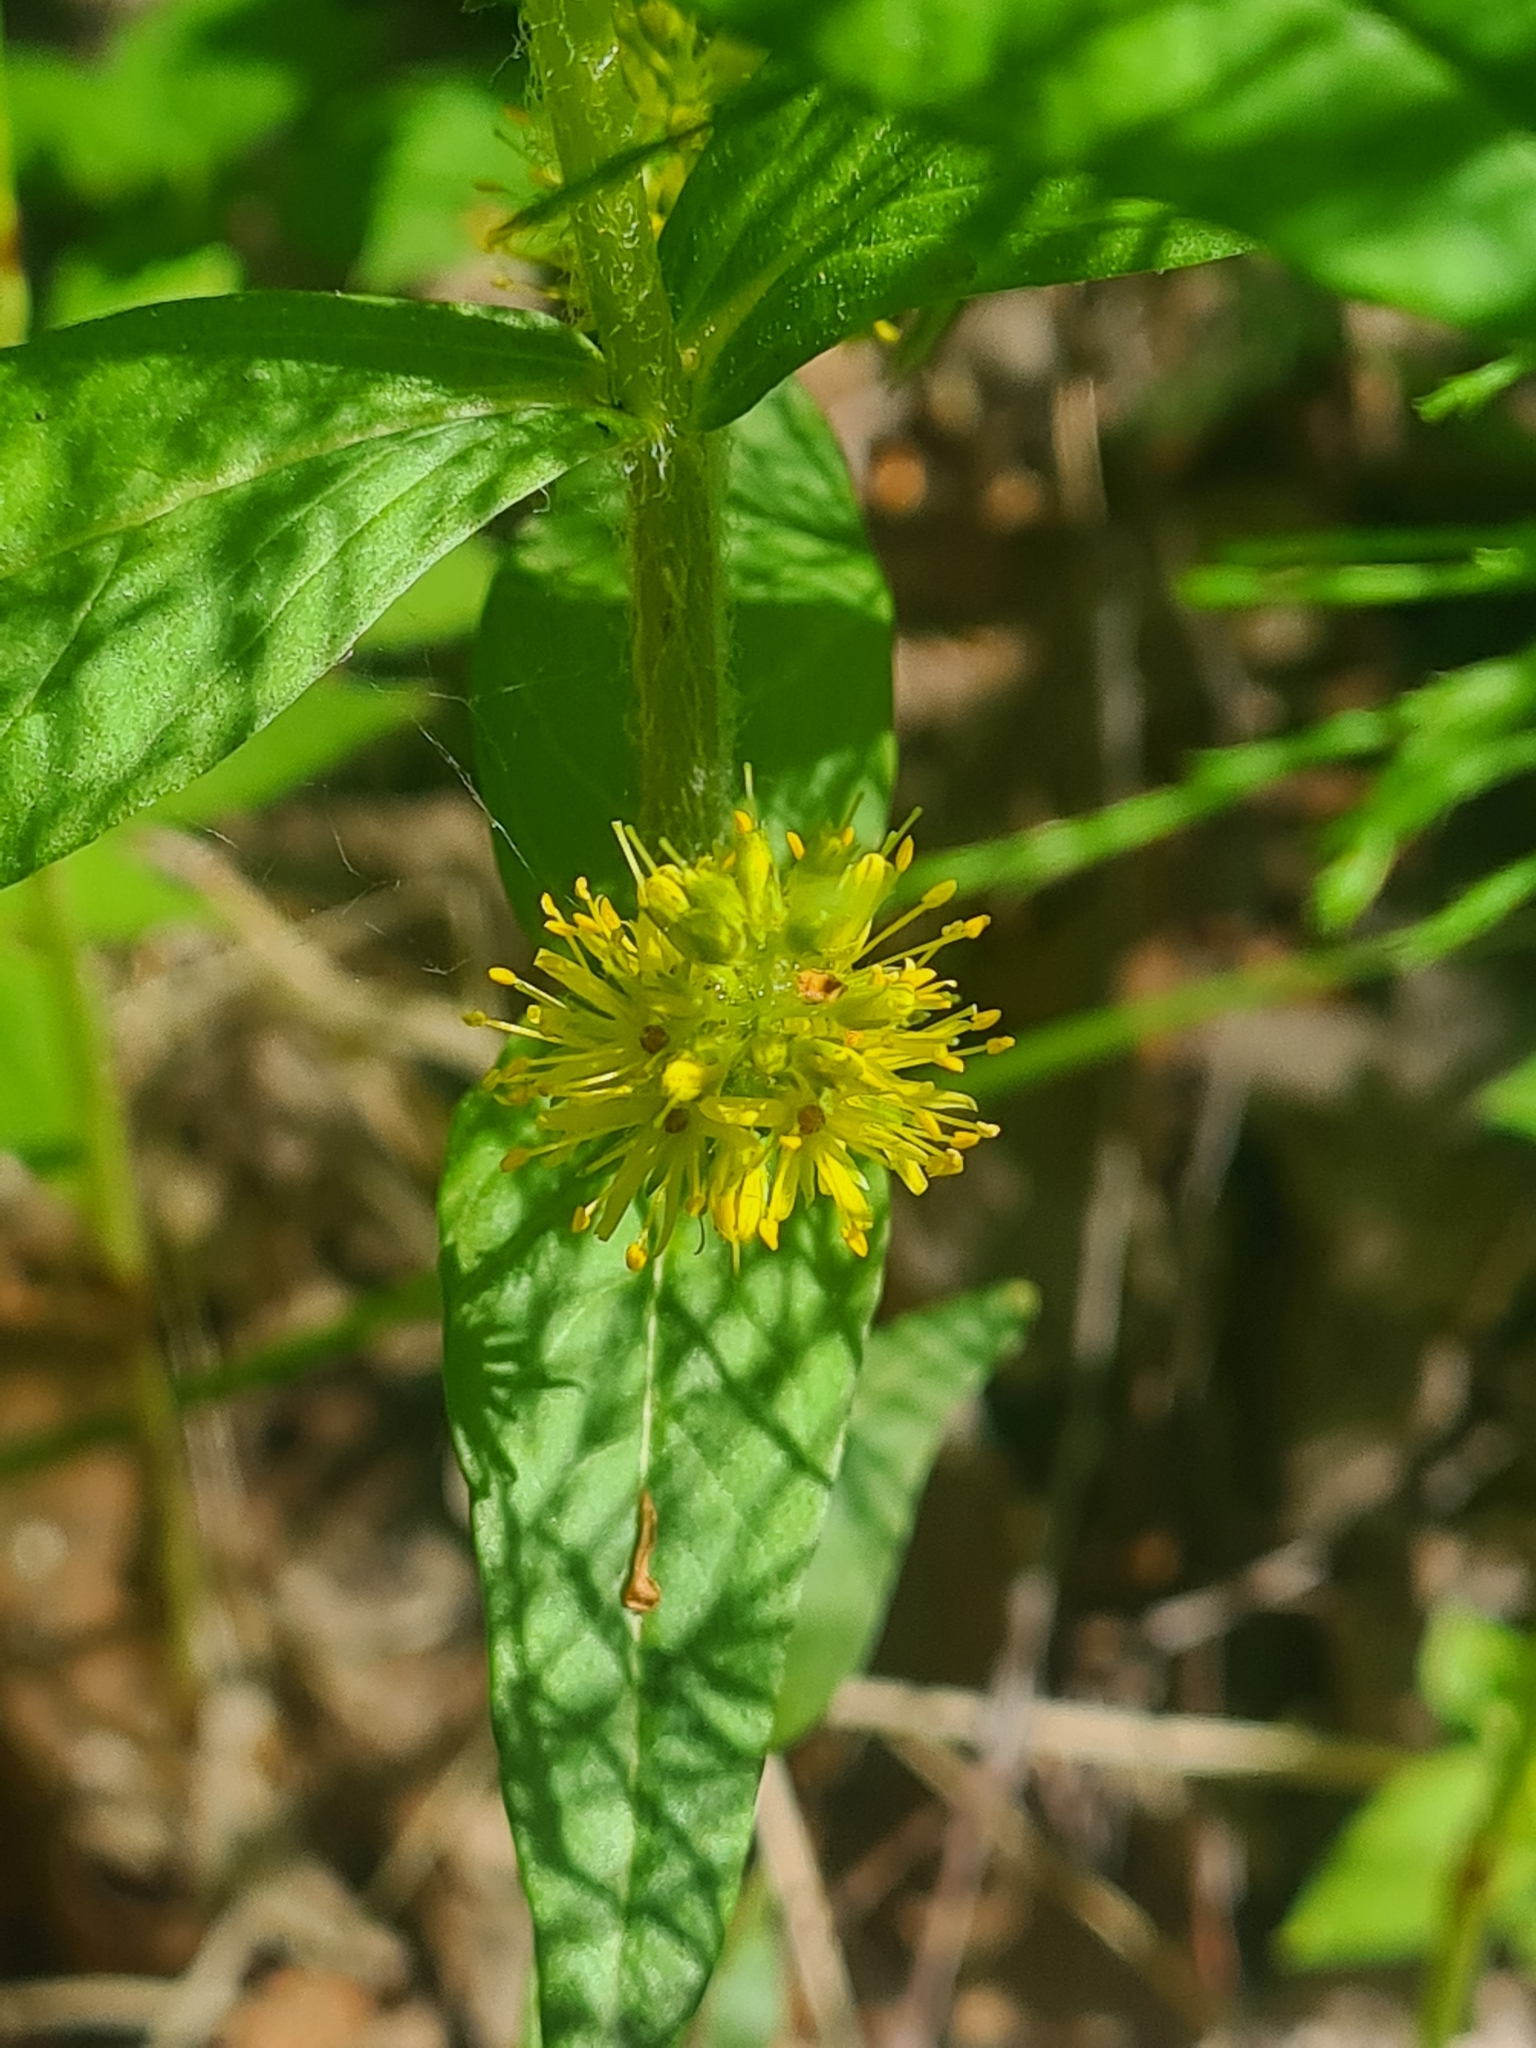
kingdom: Plantae
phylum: Tracheophyta
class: Magnoliopsida
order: Ericales
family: Primulaceae
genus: Lysimachia
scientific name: Lysimachia thyrsiflora
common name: Tufted loosestrife
